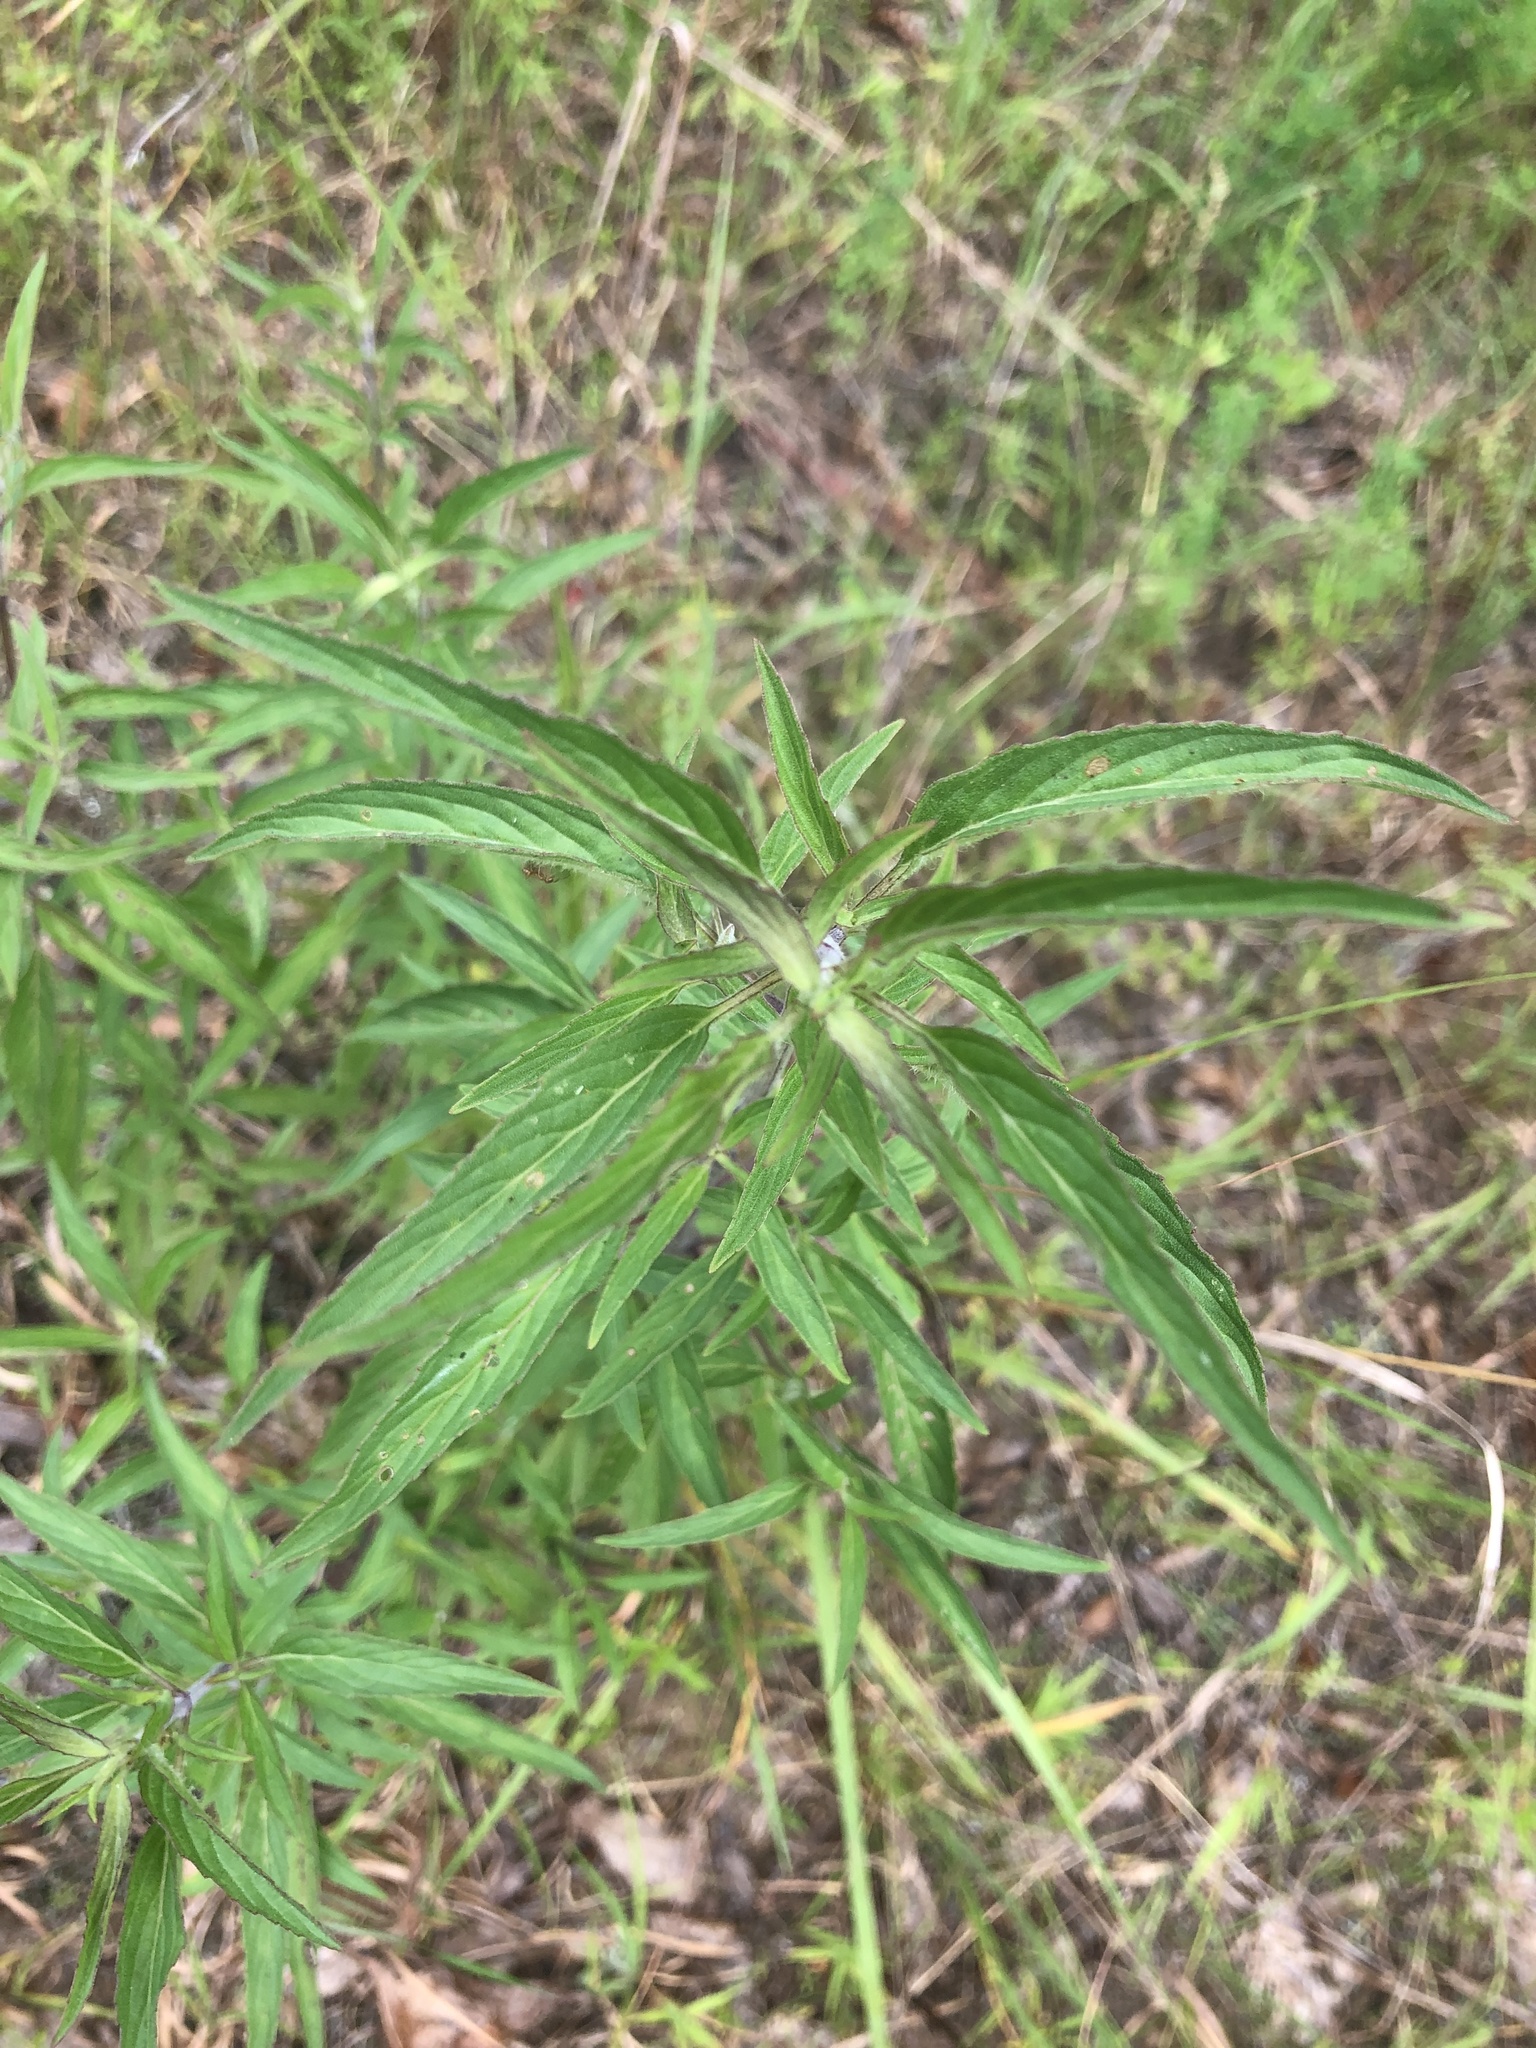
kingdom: Plantae
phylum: Tracheophyta
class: Magnoliopsida
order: Lamiales
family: Lamiaceae
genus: Monarda
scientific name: Monarda punctata
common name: Dotted monarda
